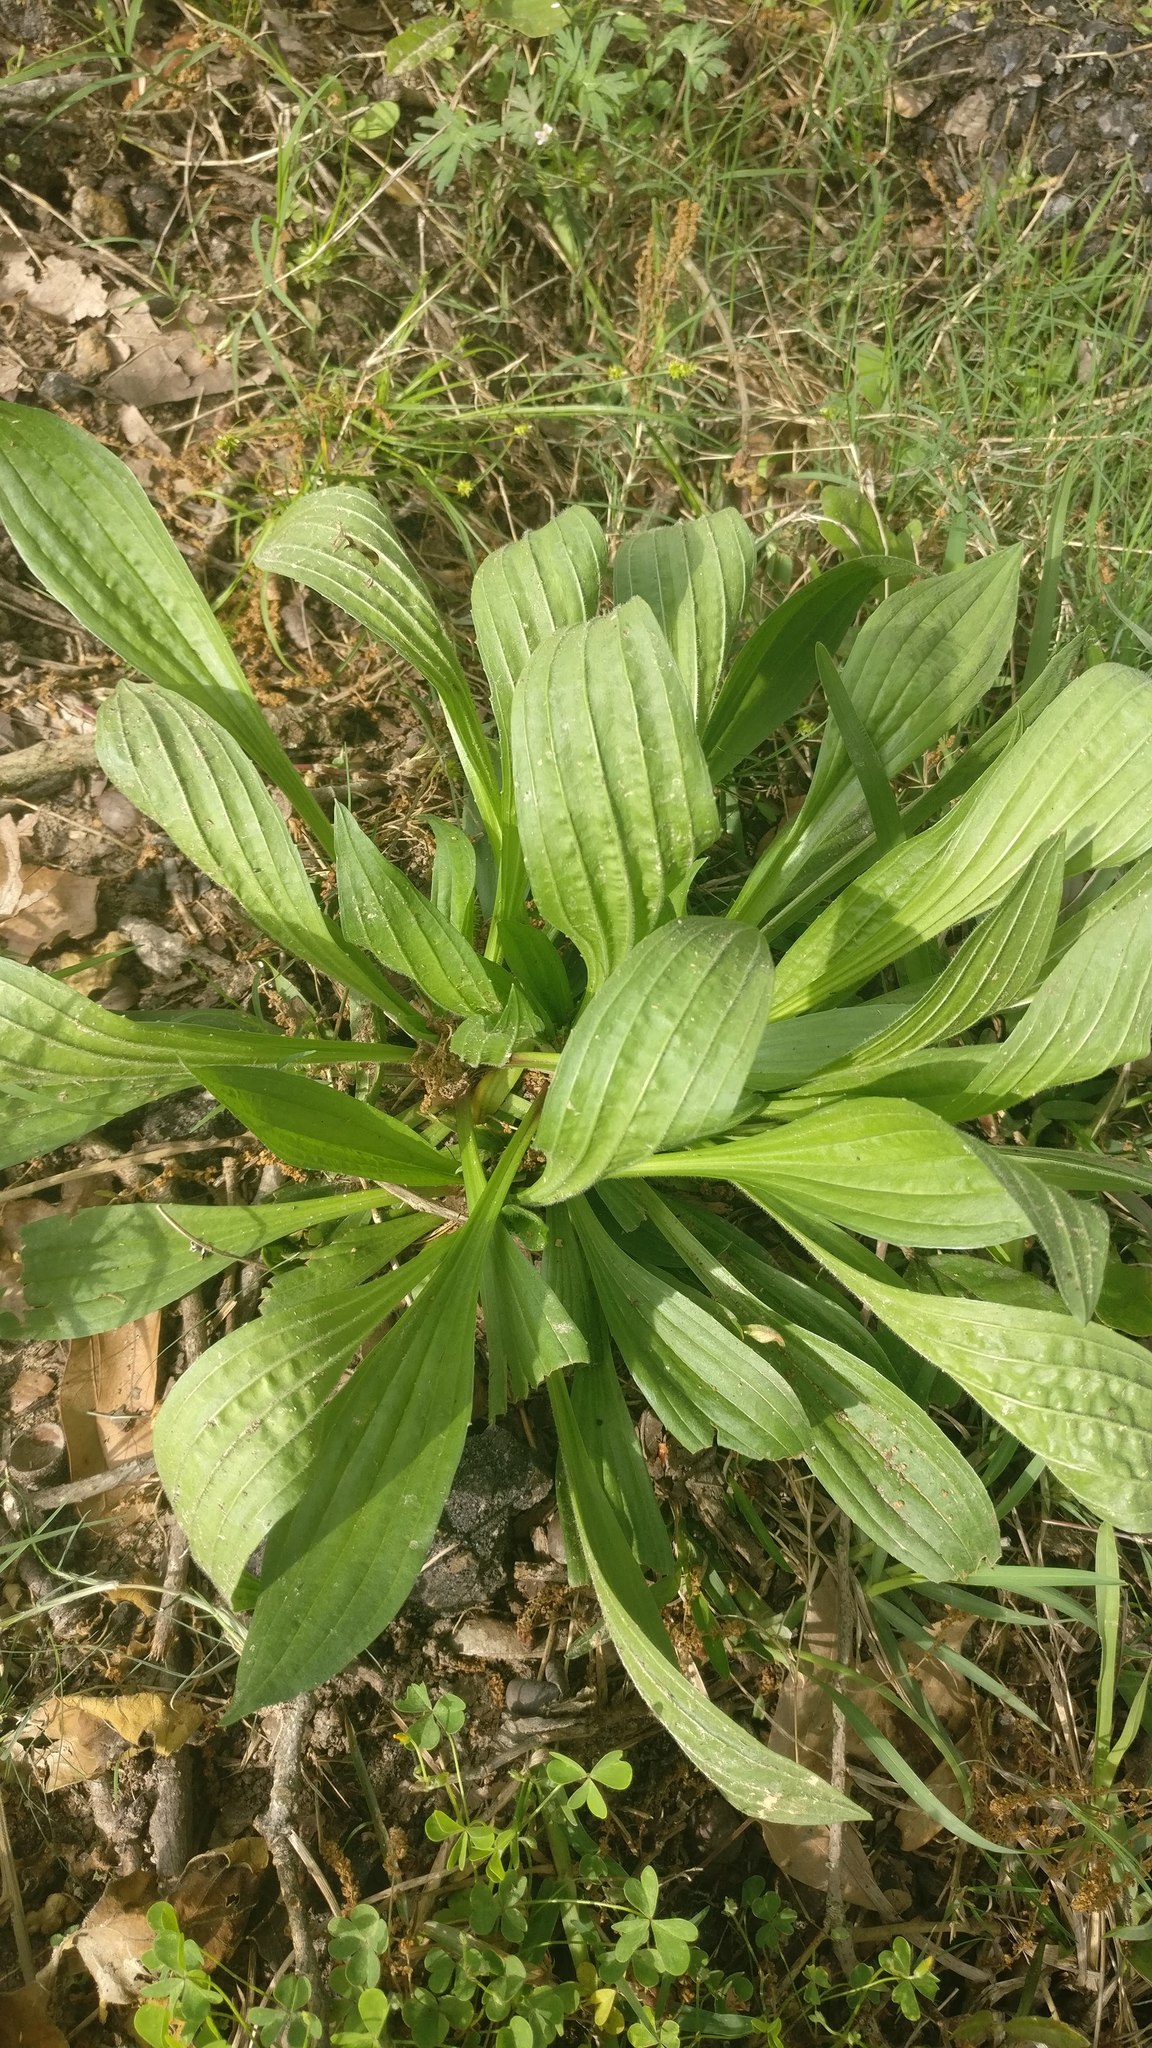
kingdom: Plantae
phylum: Tracheophyta
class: Magnoliopsida
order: Lamiales
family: Plantaginaceae
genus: Plantago
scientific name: Plantago lanceolata
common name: Ribwort plantain
